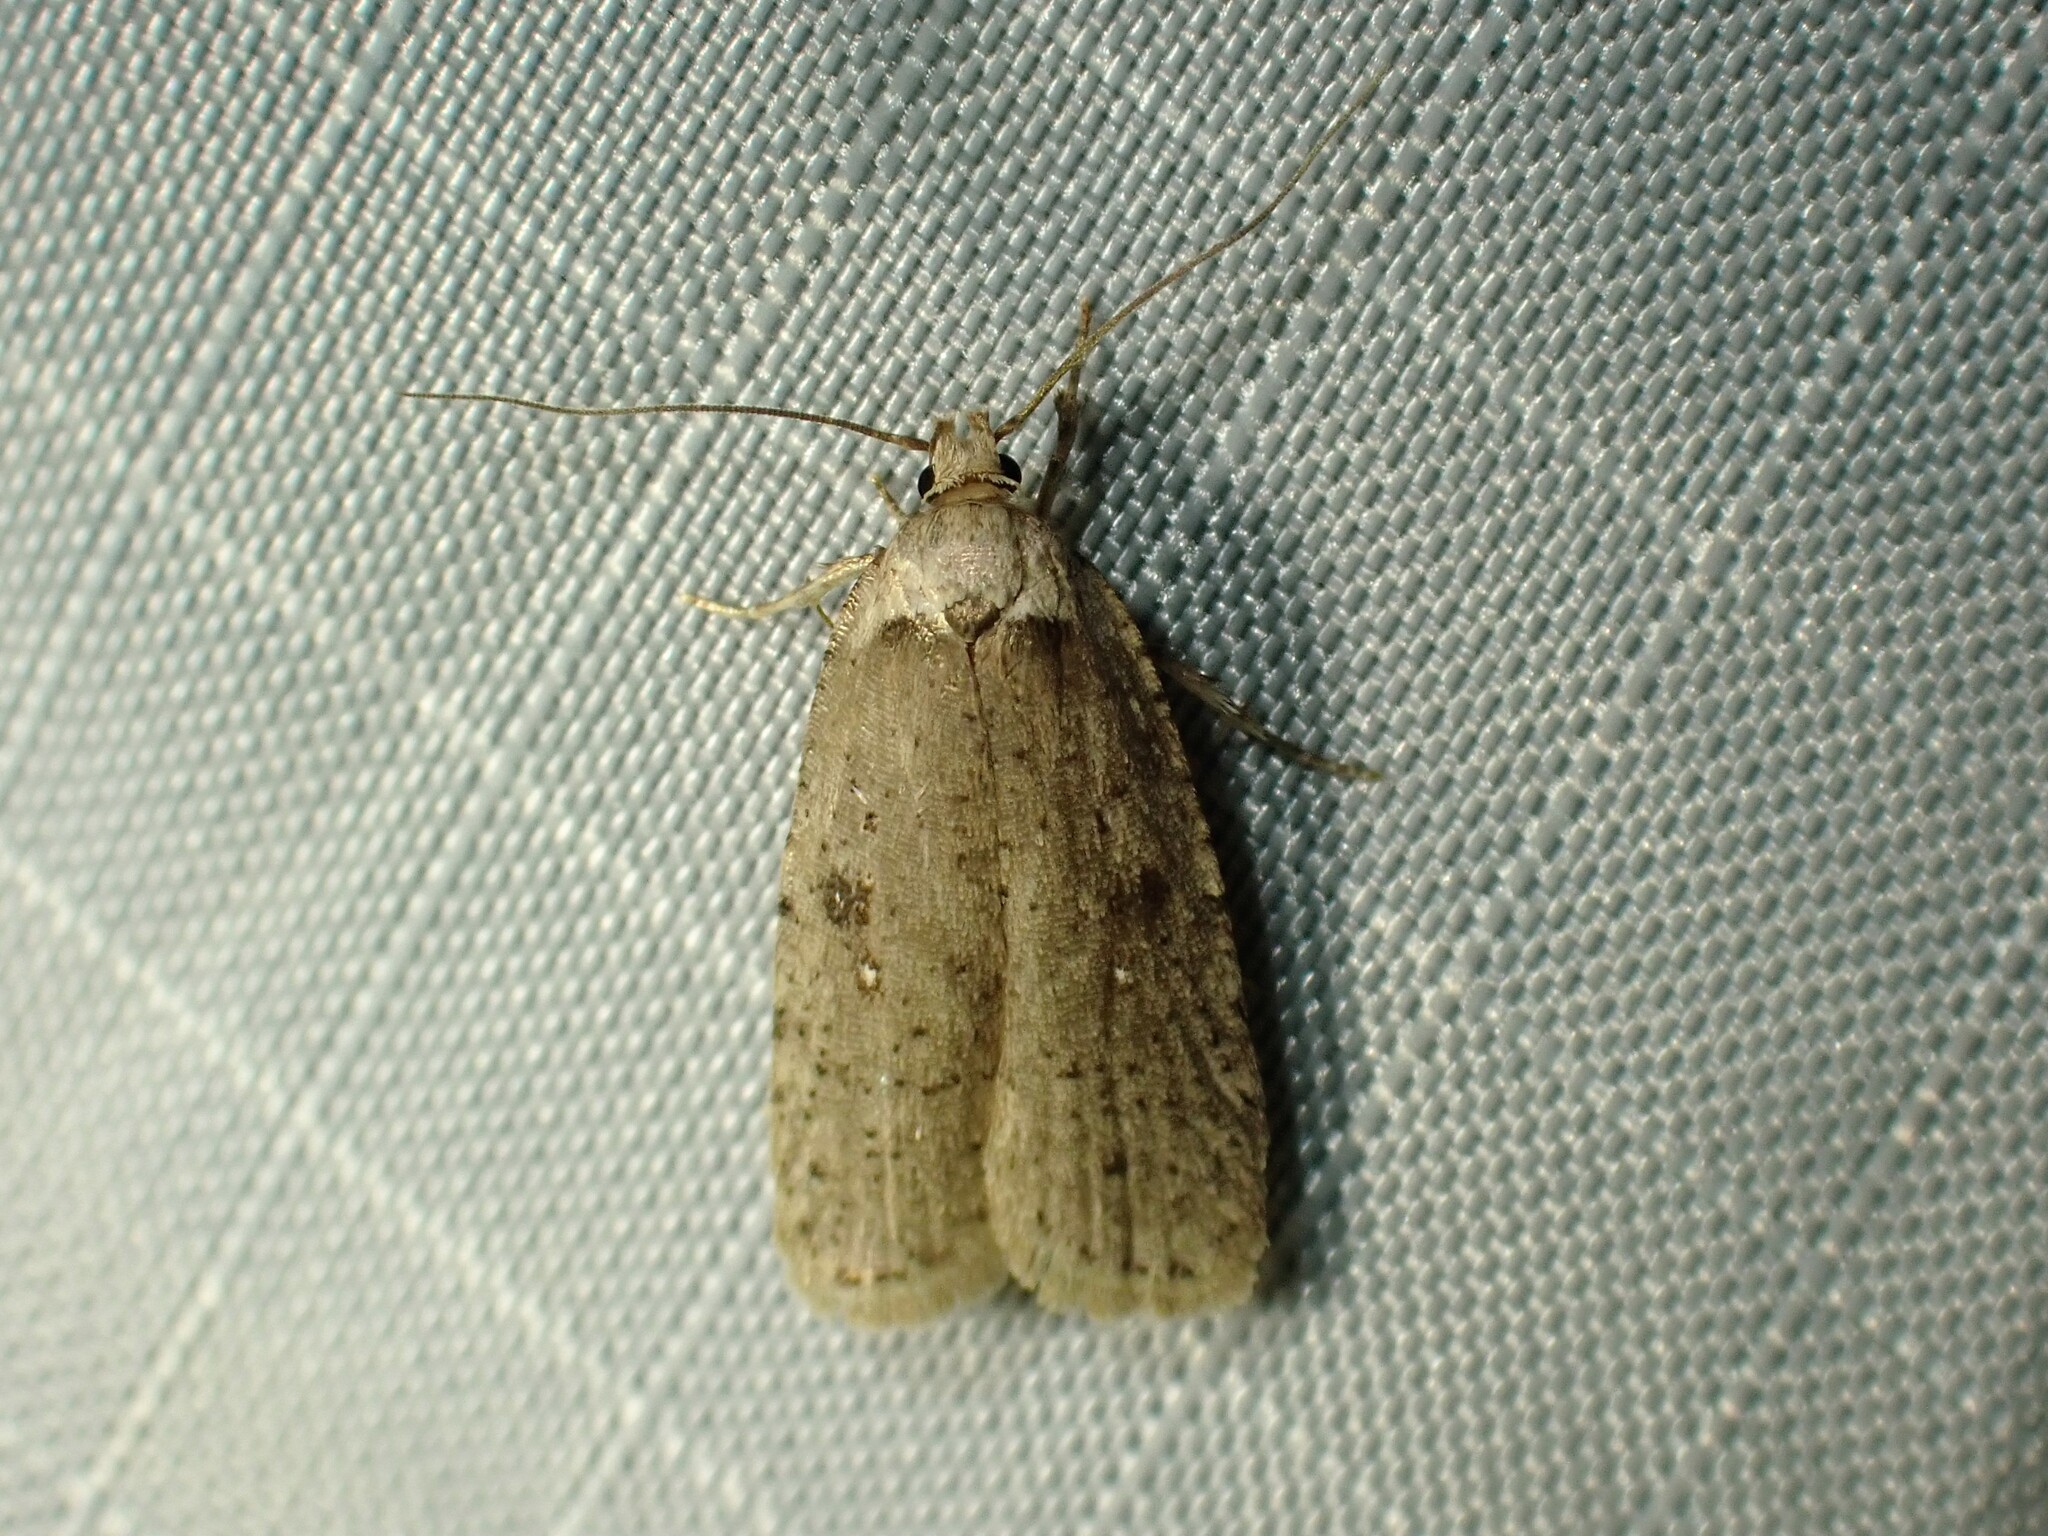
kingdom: Animalia
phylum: Arthropoda
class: Insecta
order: Lepidoptera
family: Depressariidae
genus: Agonopterix
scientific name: Agonopterix argillacea
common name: Clay-colored agonopterix moth
